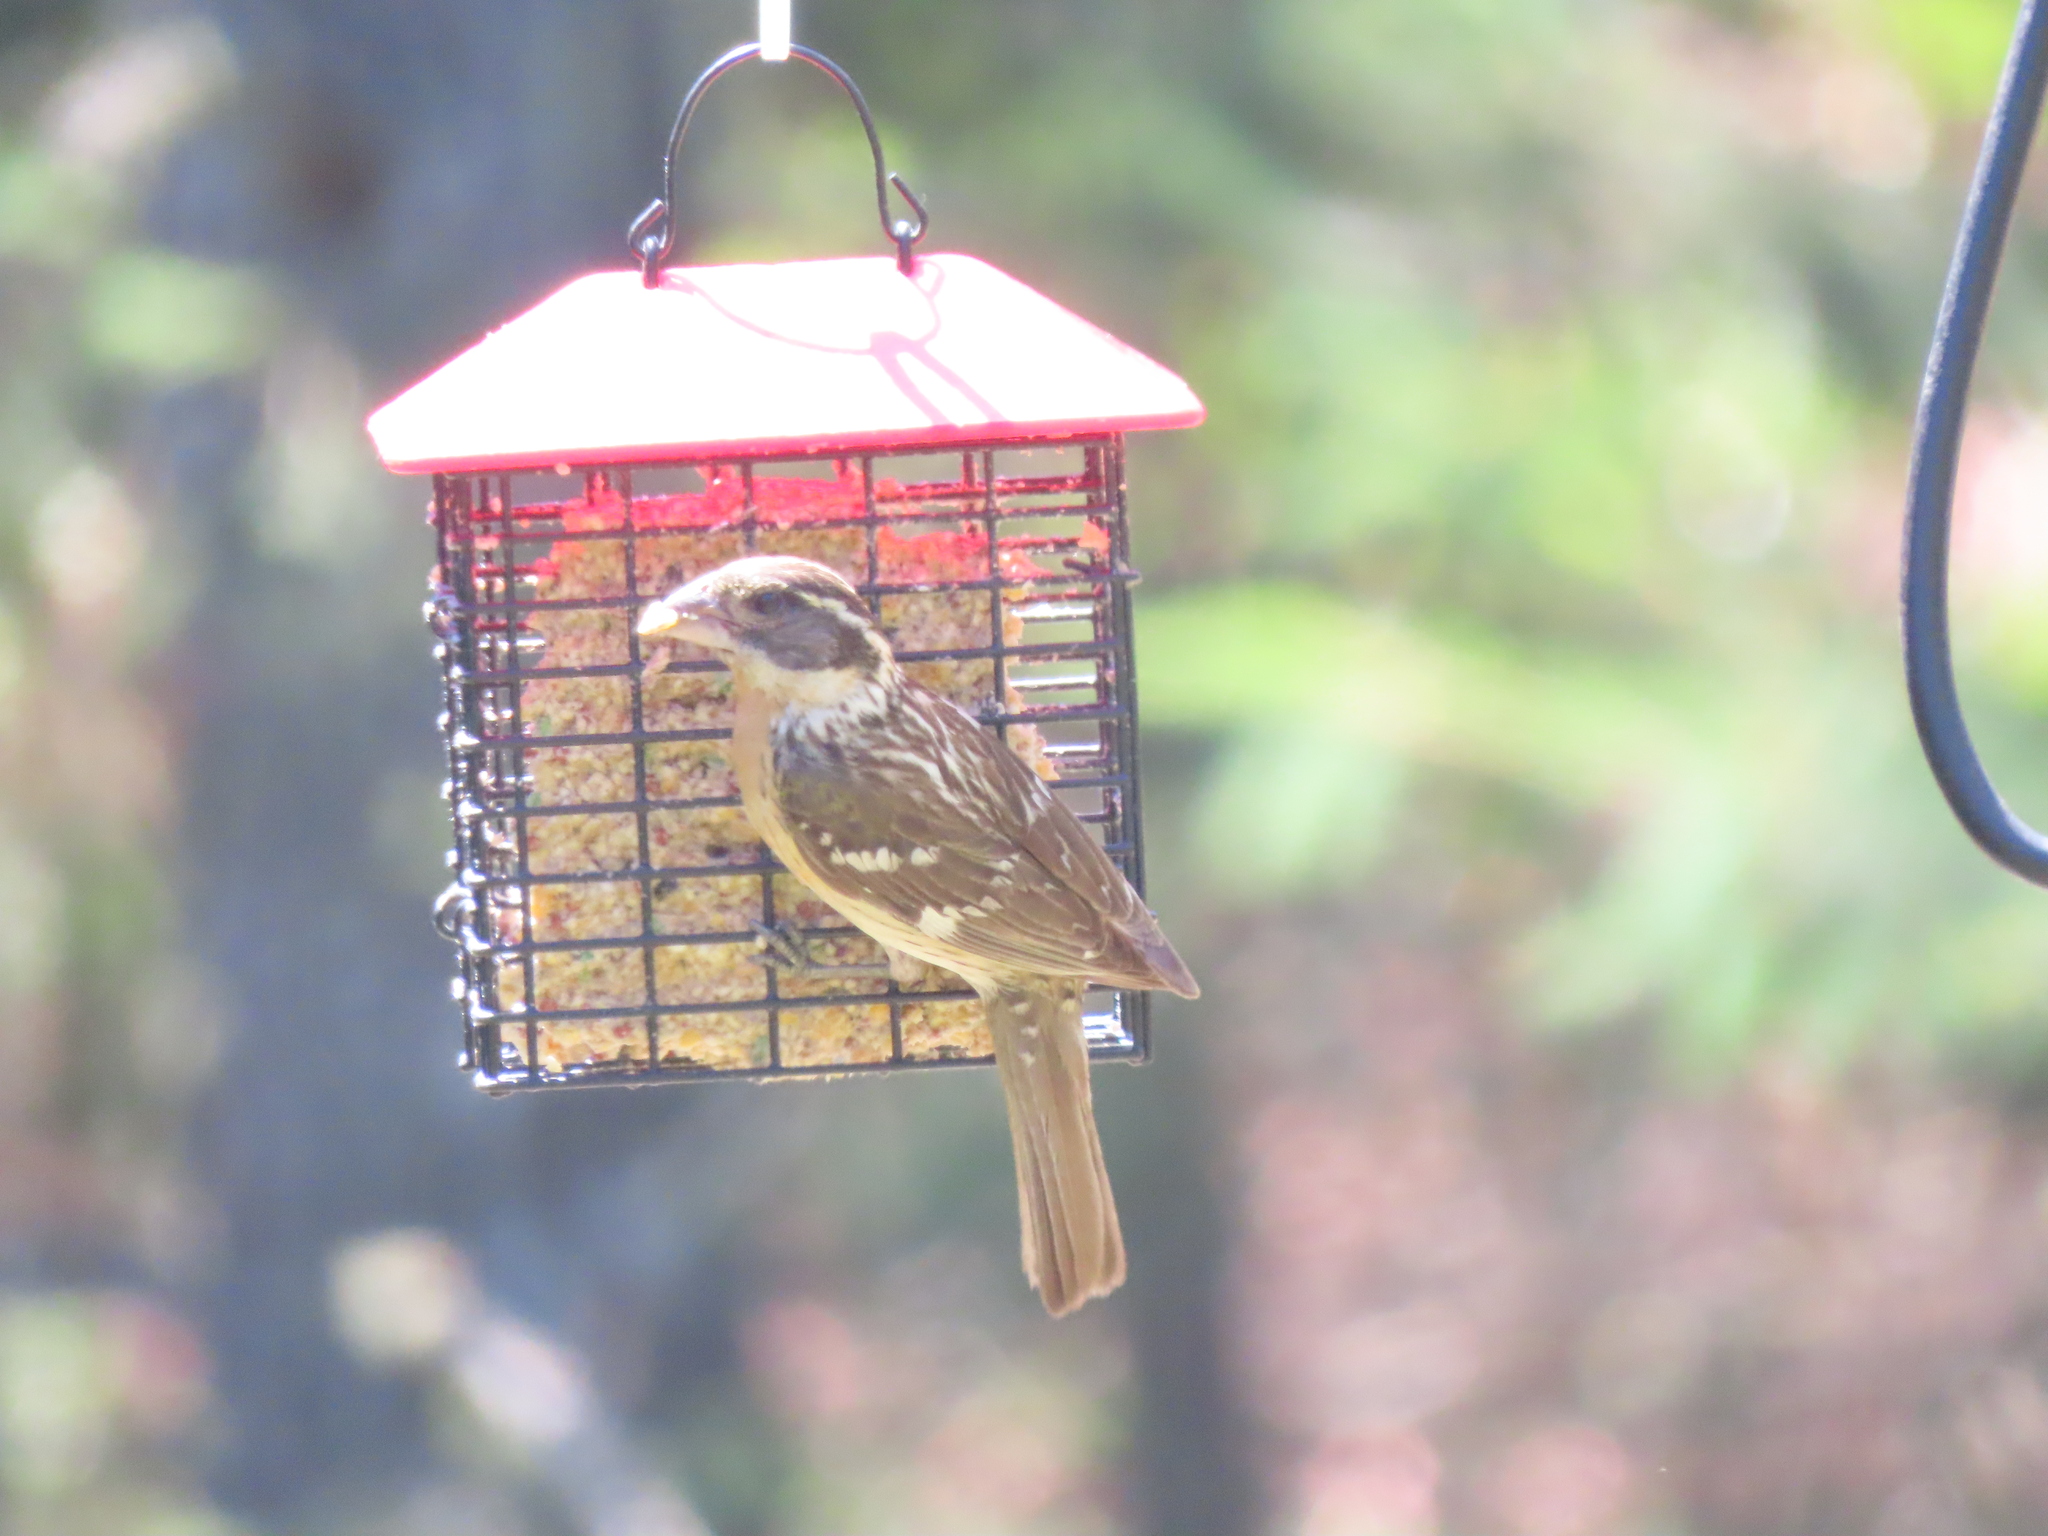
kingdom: Animalia
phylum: Chordata
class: Aves
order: Passeriformes
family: Cardinalidae
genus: Pheucticus
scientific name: Pheucticus melanocephalus
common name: Black-headed grosbeak
